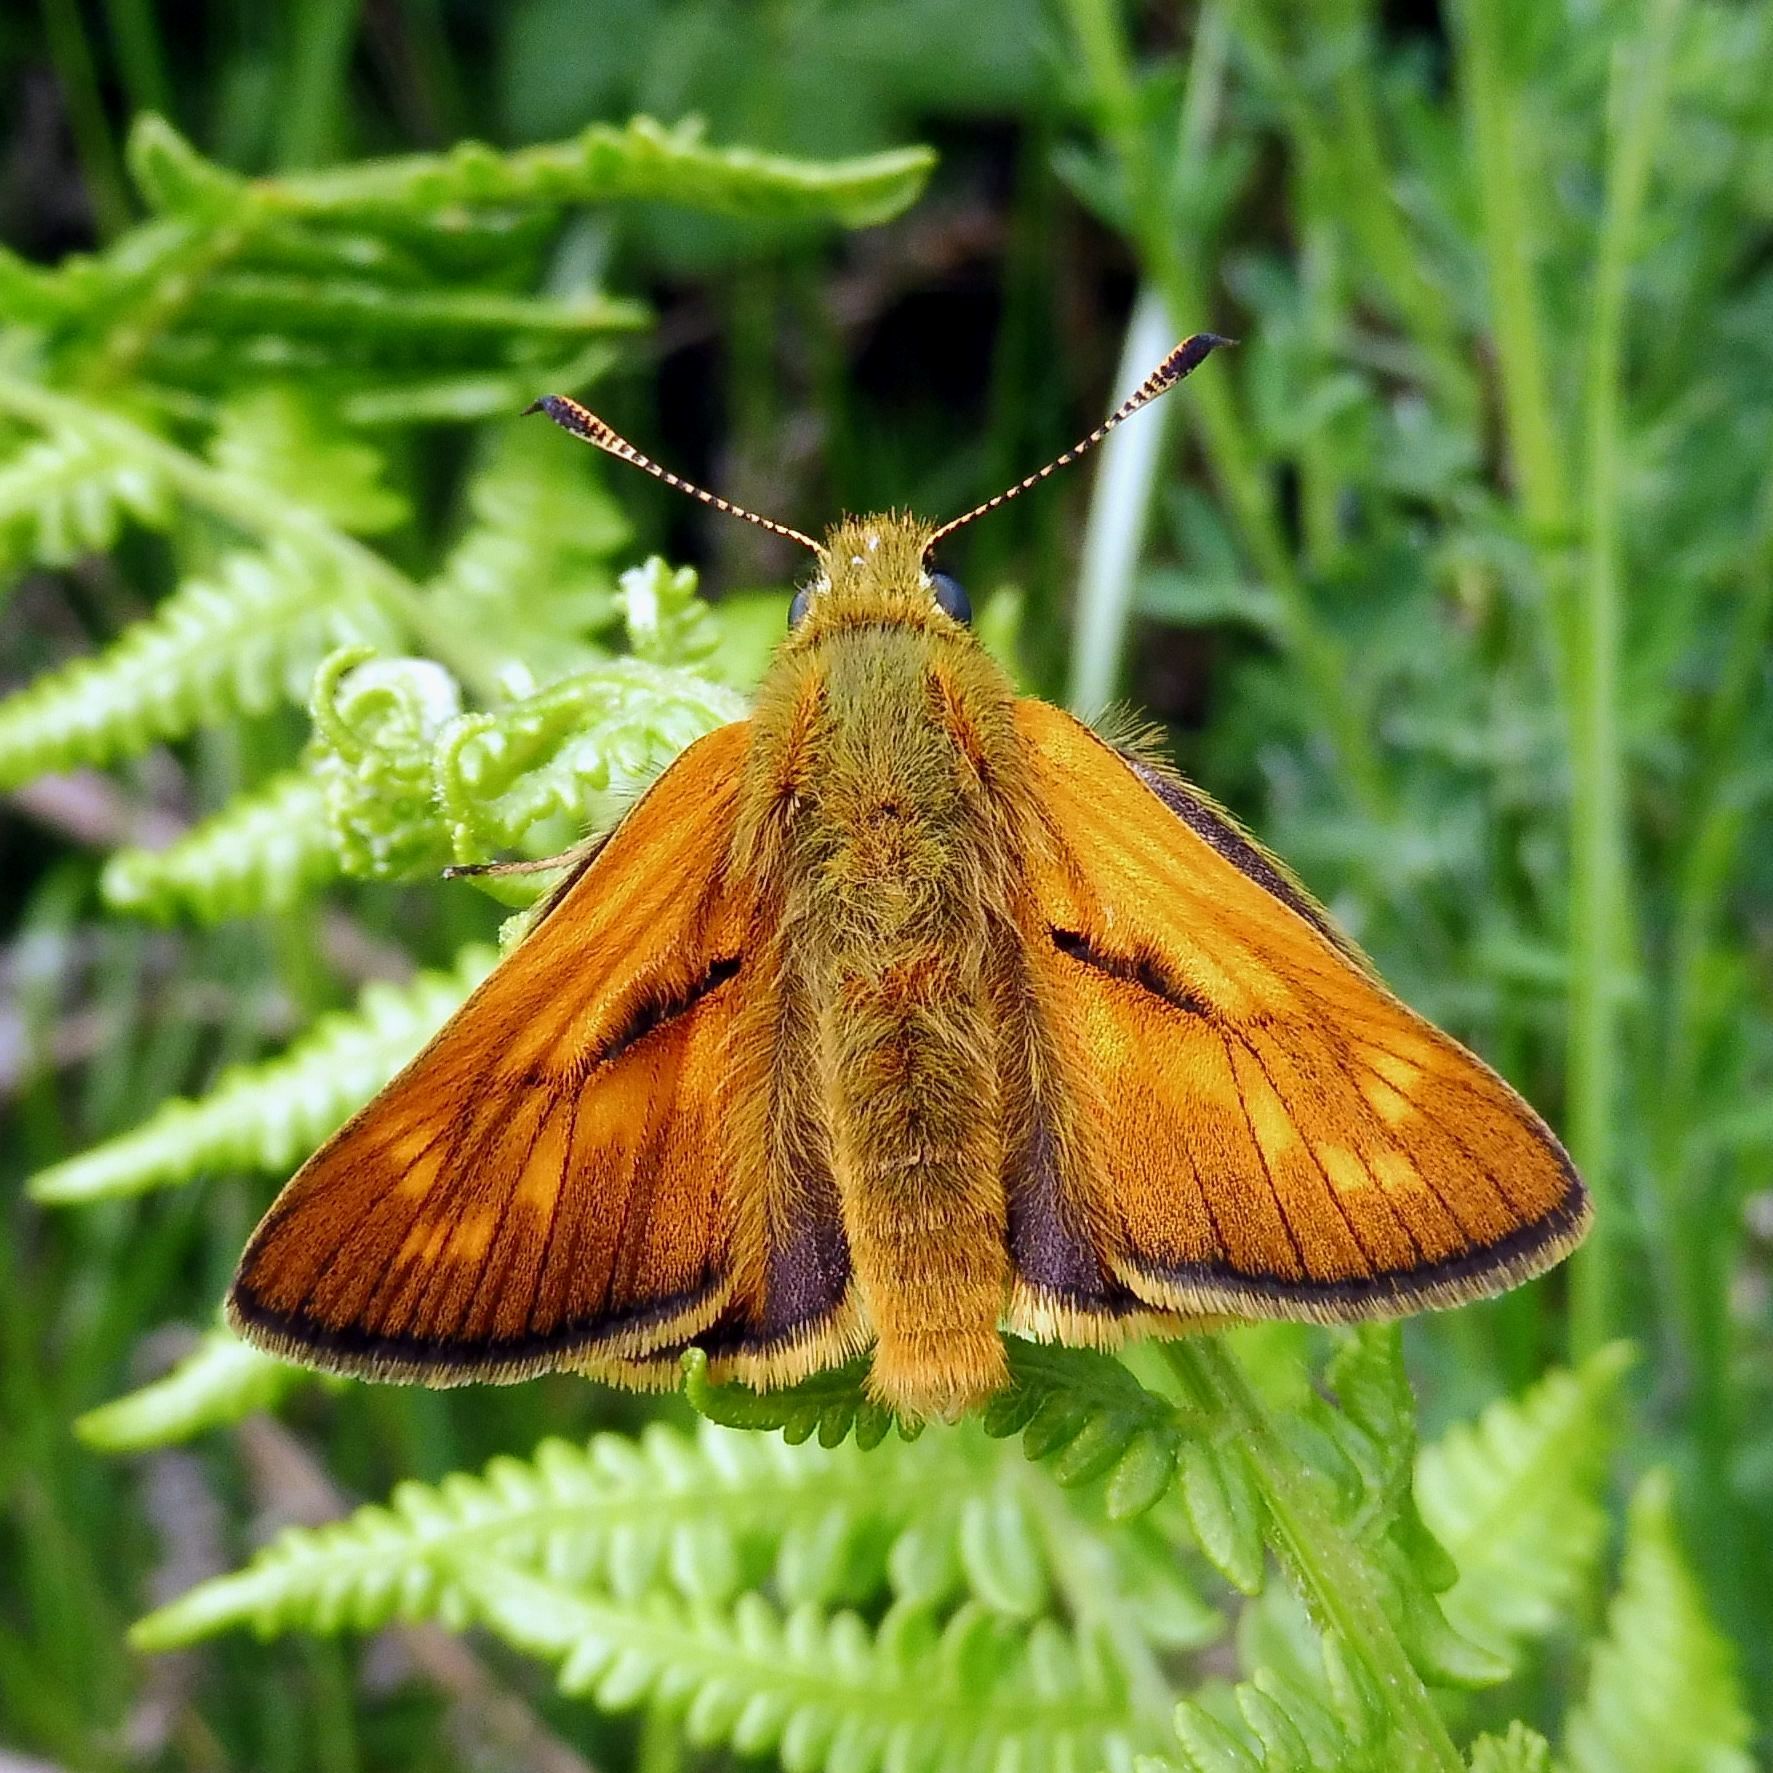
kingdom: Animalia
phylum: Arthropoda
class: Insecta
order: Lepidoptera
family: Hesperiidae
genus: Ochlodes
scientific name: Ochlodes venata
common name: Large skipper
